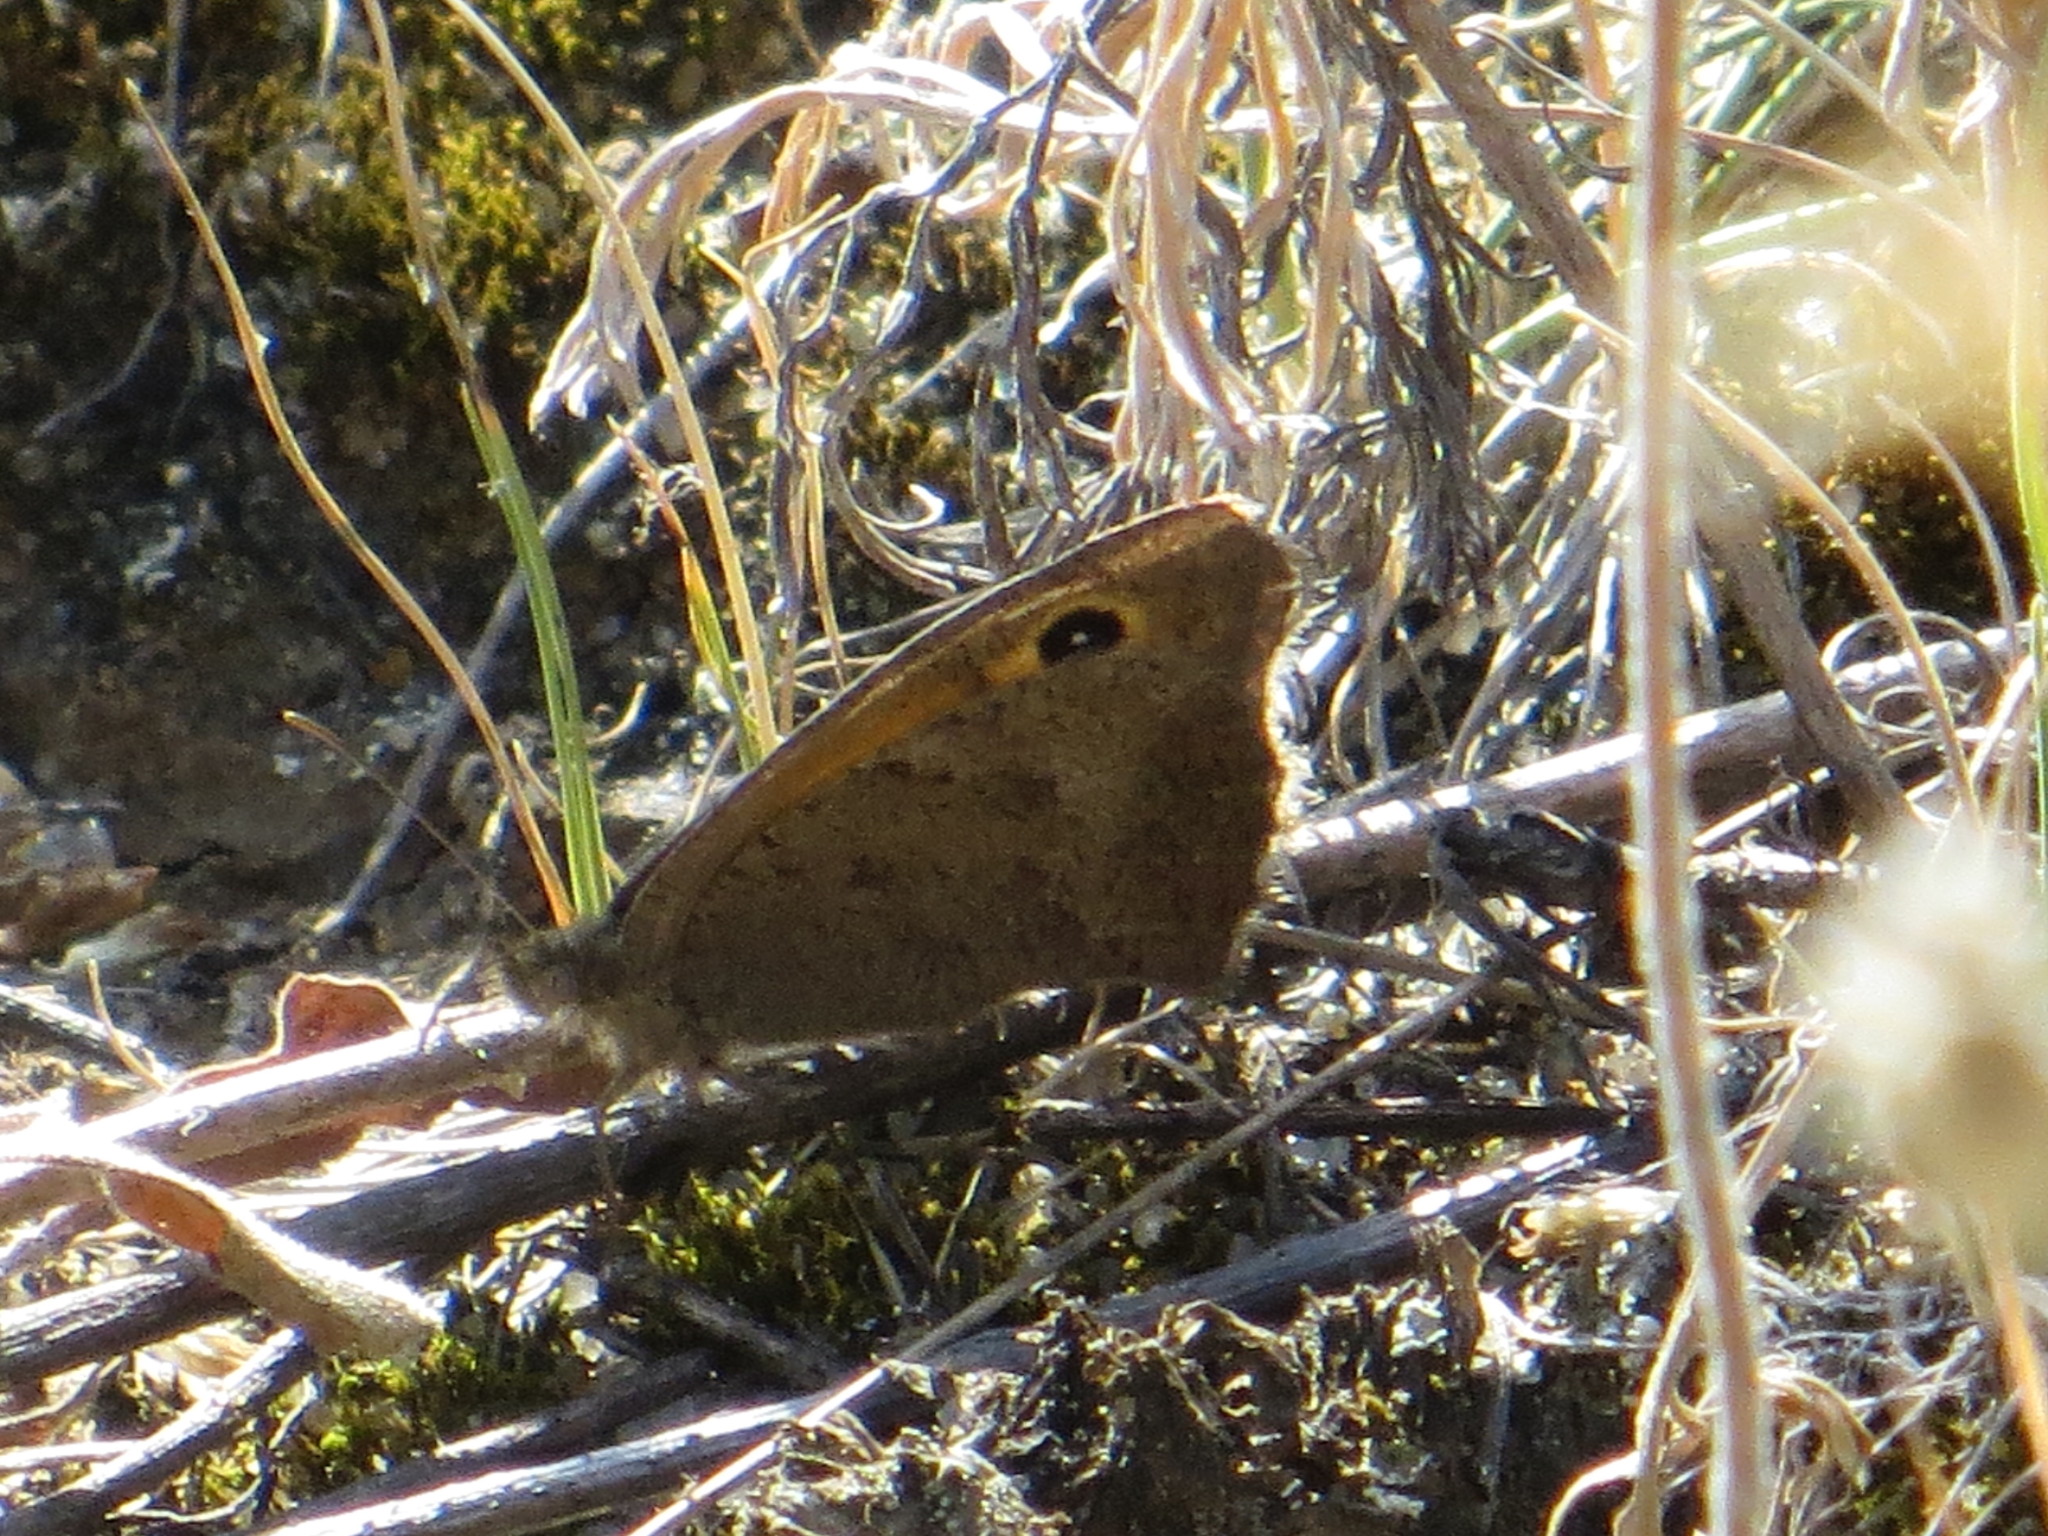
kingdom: Animalia
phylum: Arthropoda
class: Insecta
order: Lepidoptera
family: Nymphalidae
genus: Hyponephele
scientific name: Hyponephele lycaon
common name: Dusky meadow brown
